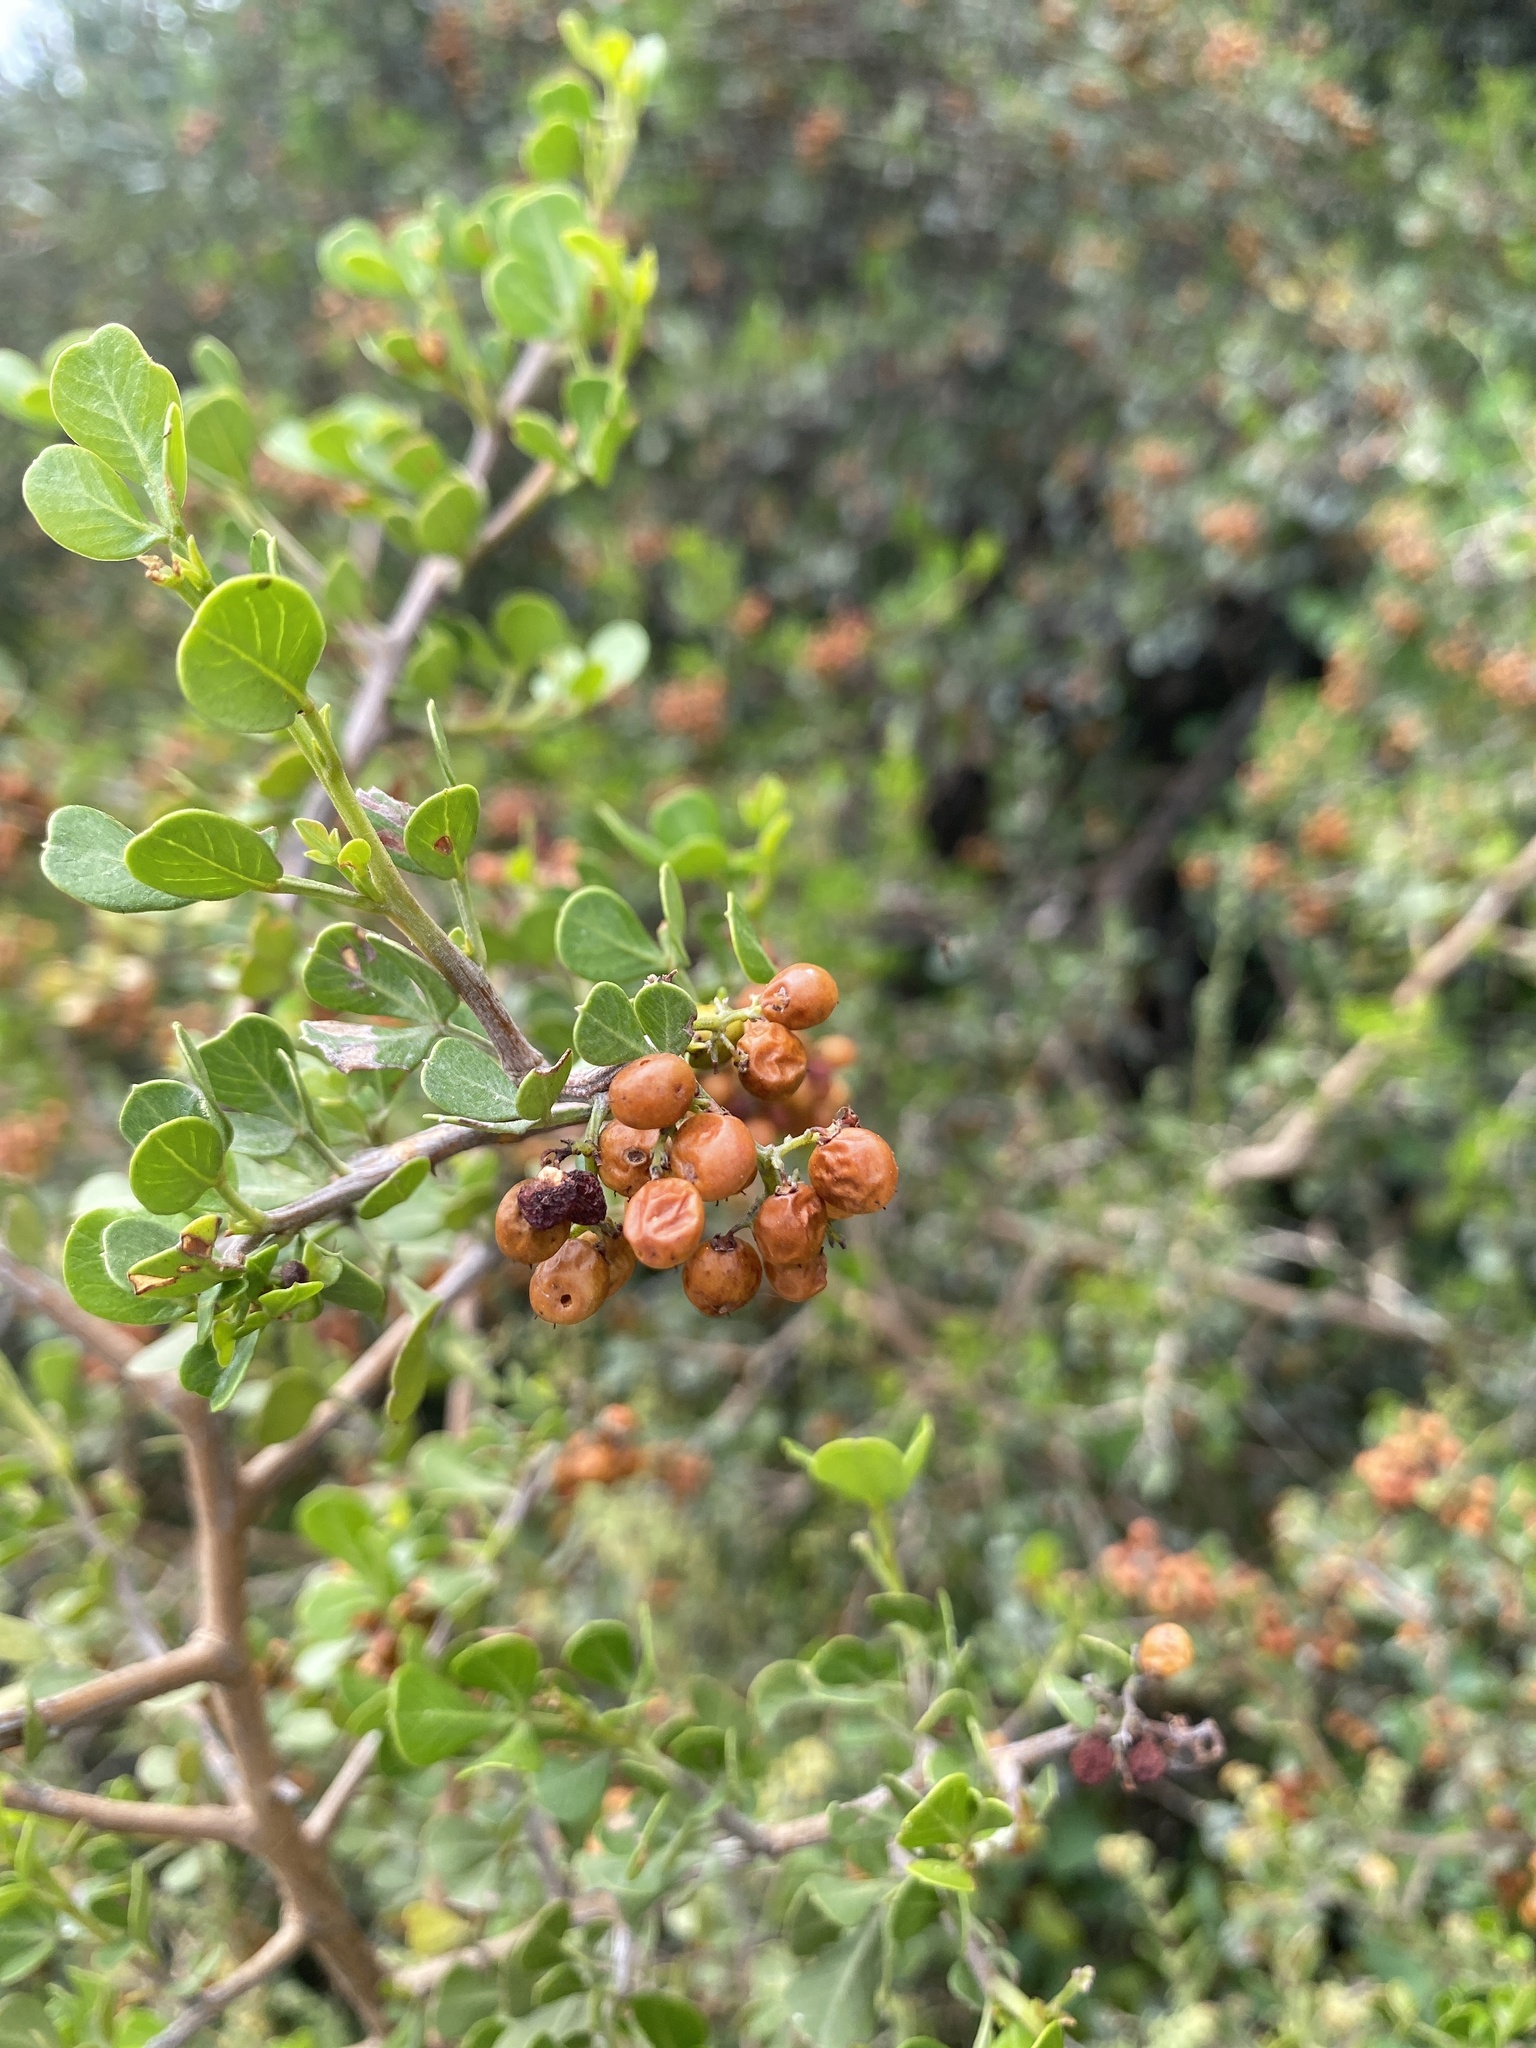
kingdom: Plantae
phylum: Tracheophyta
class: Magnoliopsida
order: Sapindales
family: Anacardiaceae
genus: Searsia
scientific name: Searsia glauca
